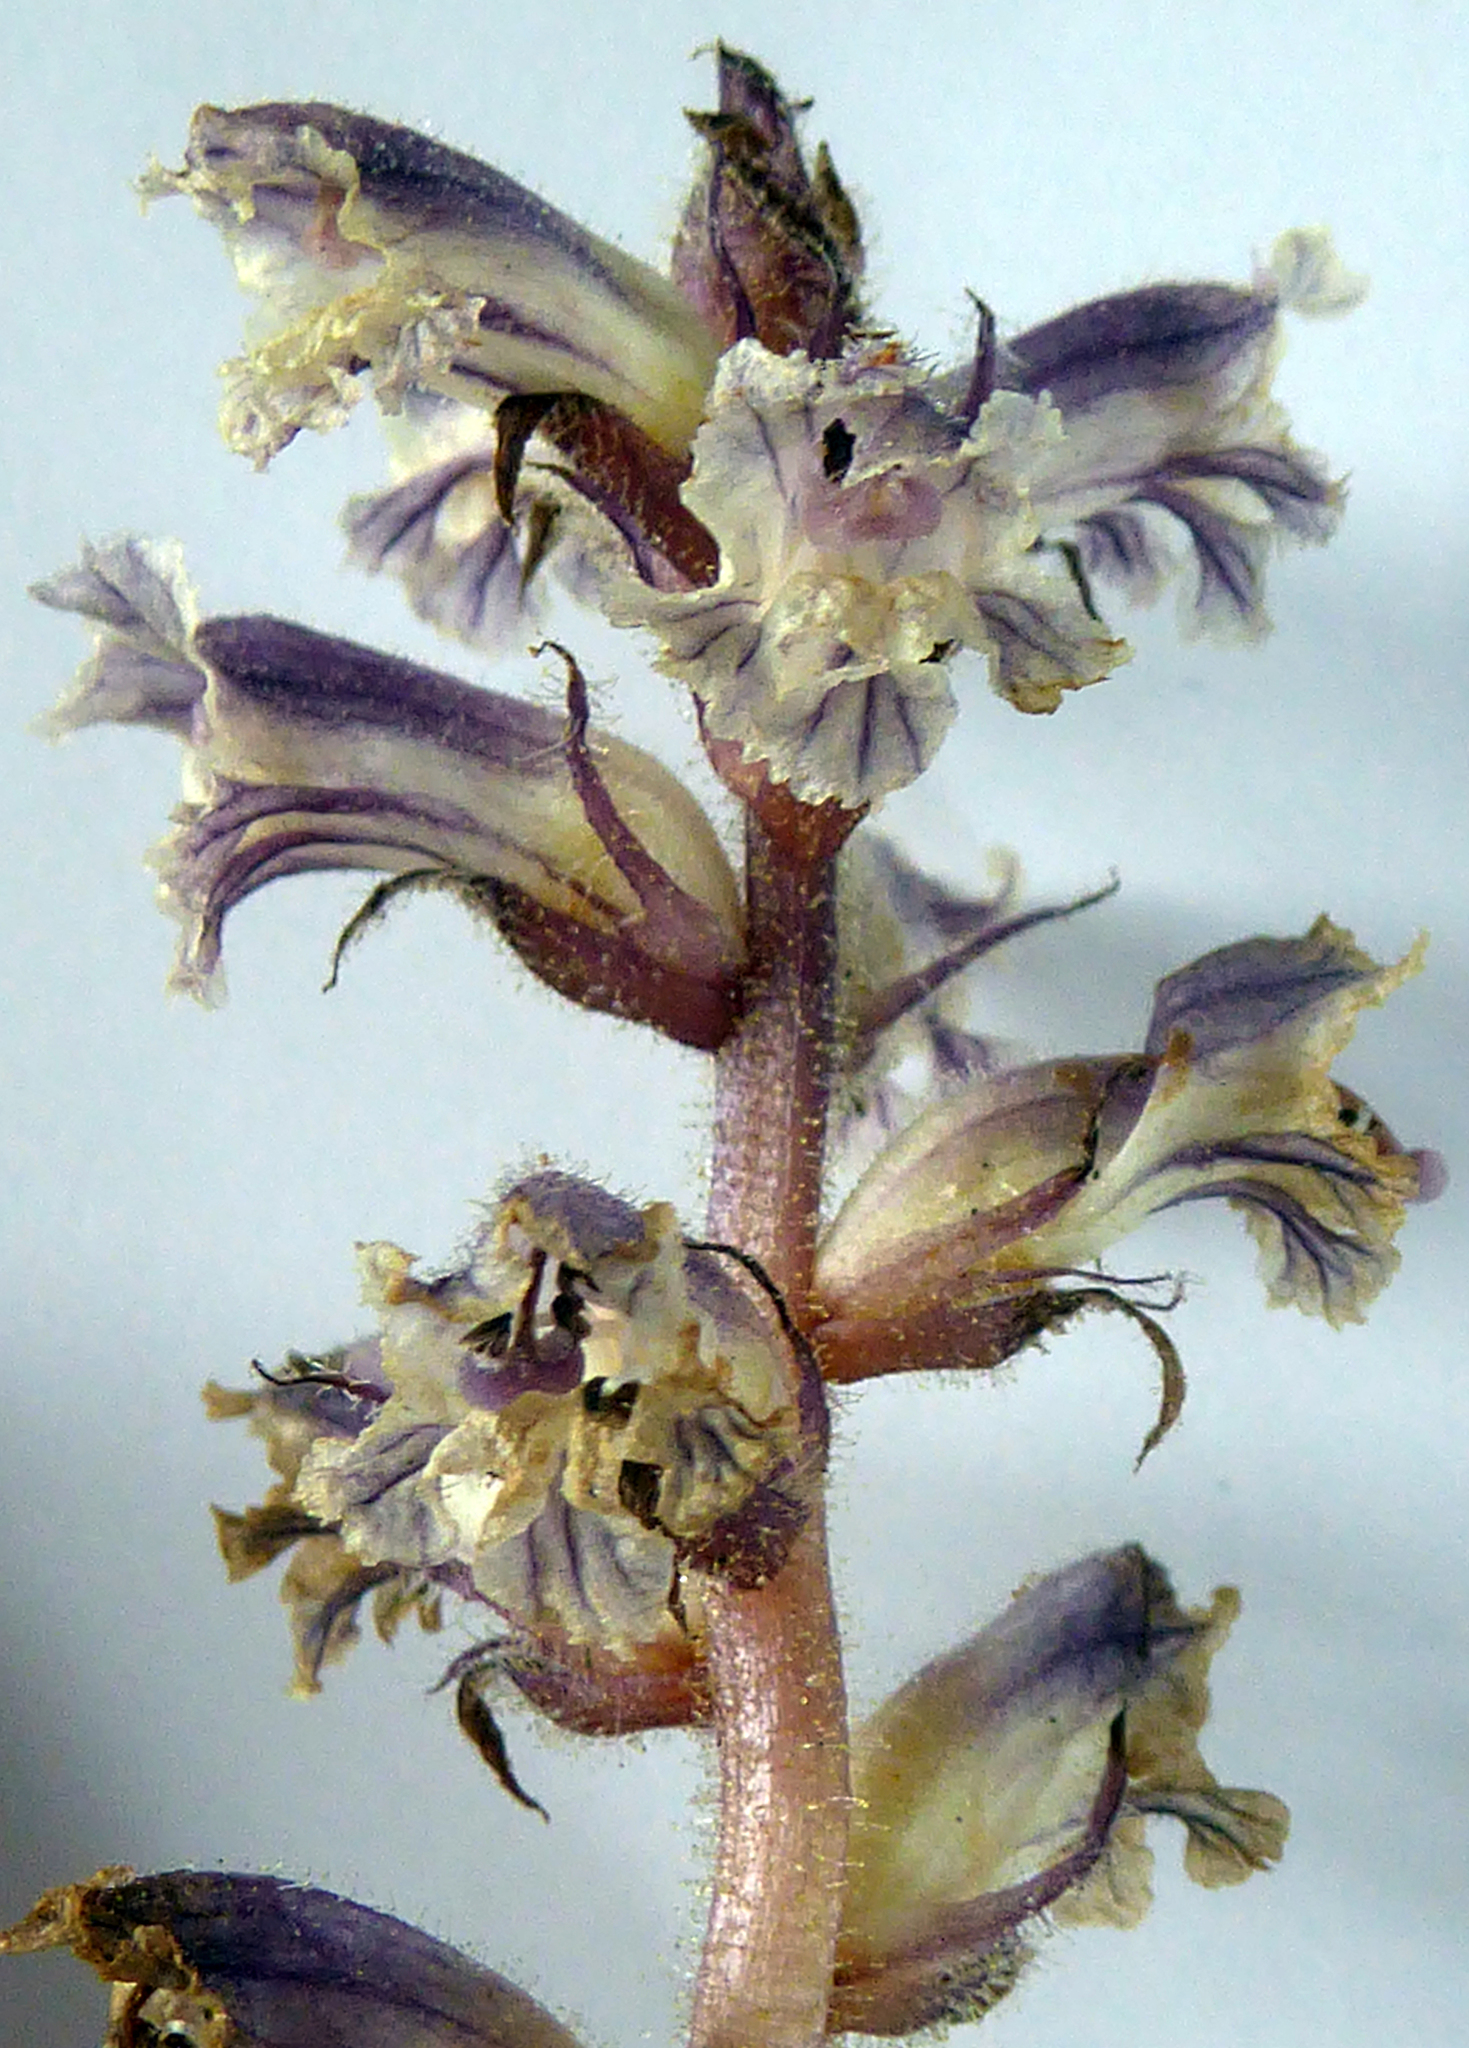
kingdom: Plantae
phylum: Tracheophyta
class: Magnoliopsida
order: Lamiales
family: Orobanchaceae
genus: Orobanche
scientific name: Orobanche minor
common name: Common broomrape
